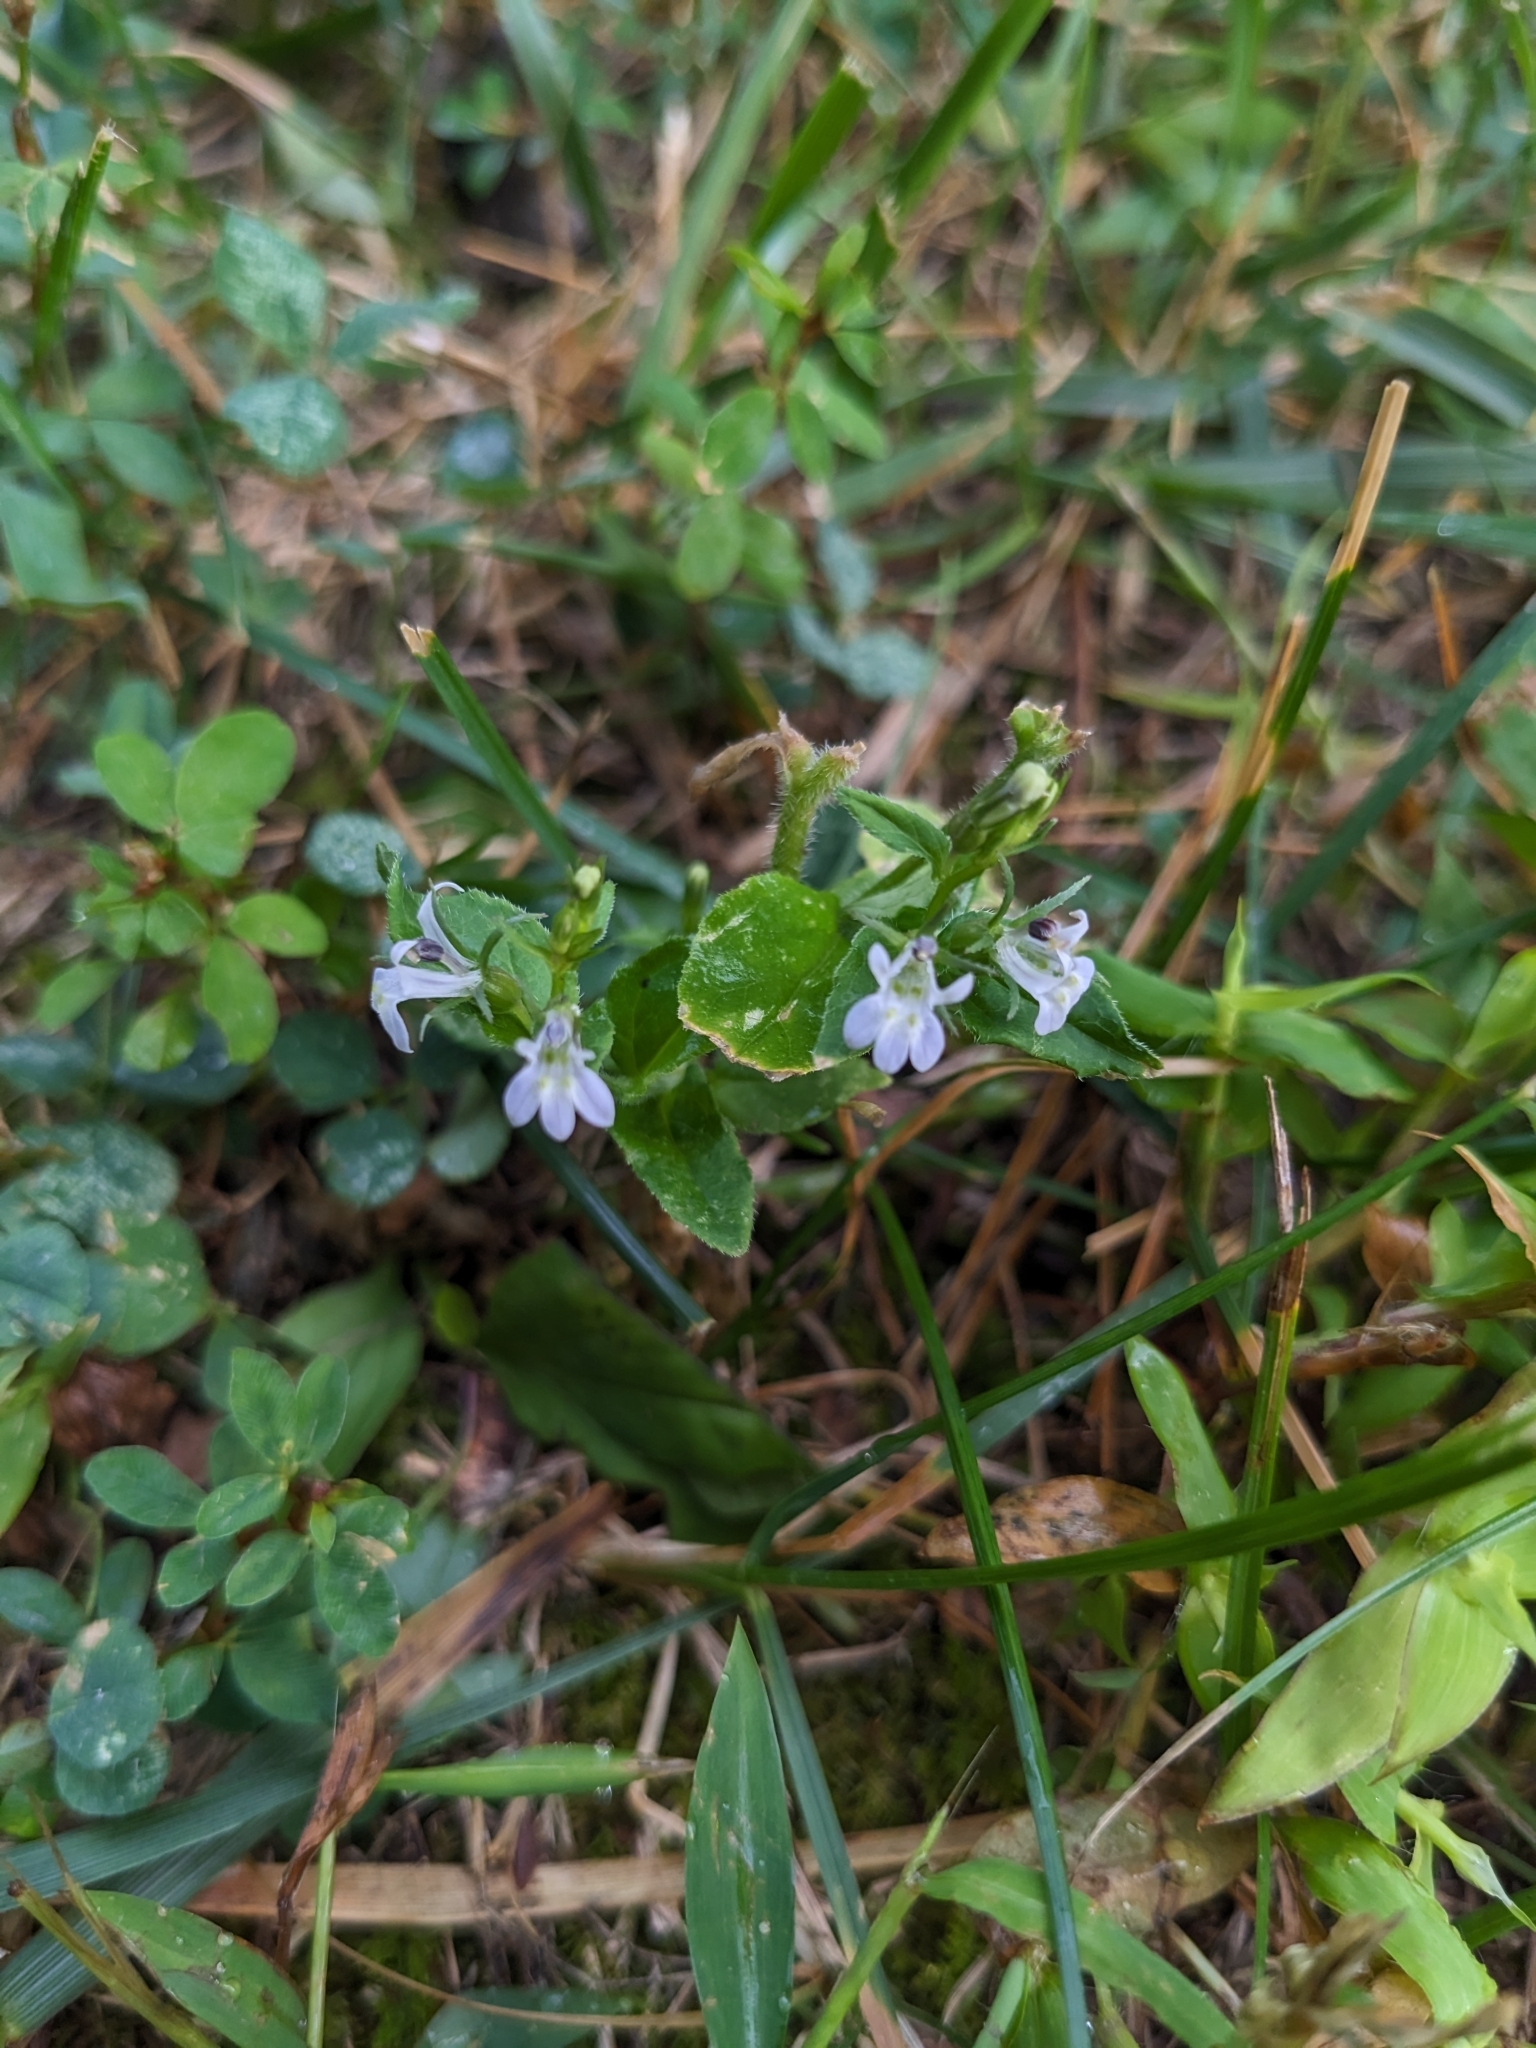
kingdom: Plantae
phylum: Tracheophyta
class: Magnoliopsida
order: Asterales
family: Campanulaceae
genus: Lobelia
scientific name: Lobelia inflata
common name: Indian tobacco
